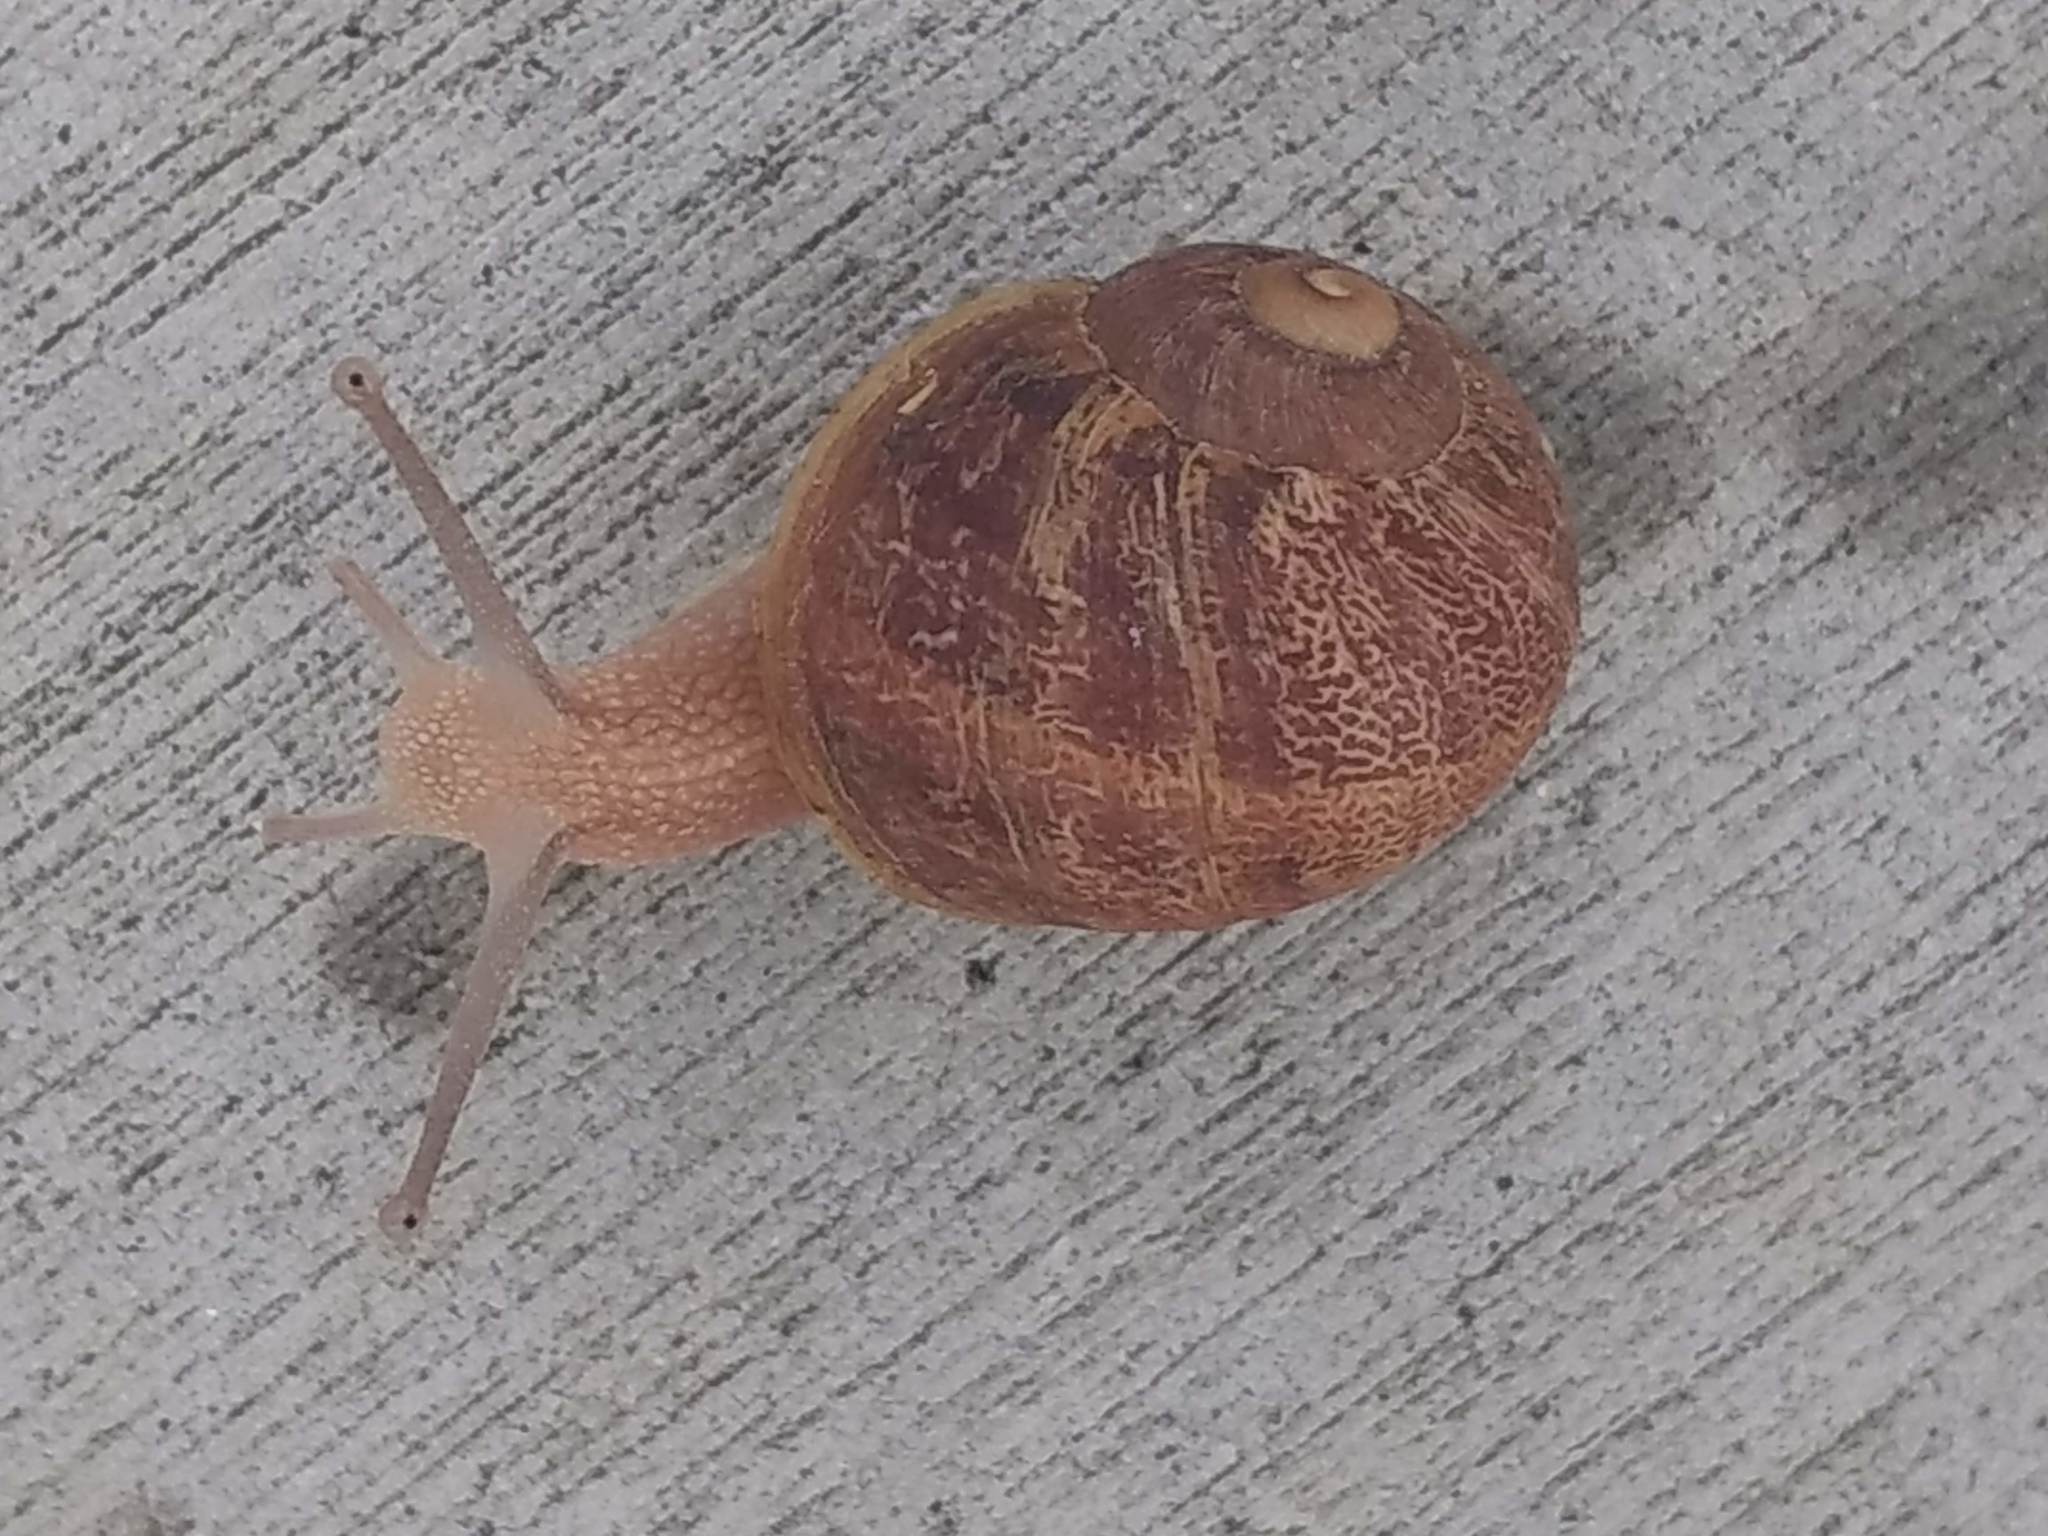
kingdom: Animalia
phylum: Mollusca
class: Gastropoda
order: Stylommatophora
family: Helicidae
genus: Cornu
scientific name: Cornu aspersum
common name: Brown garden snail
